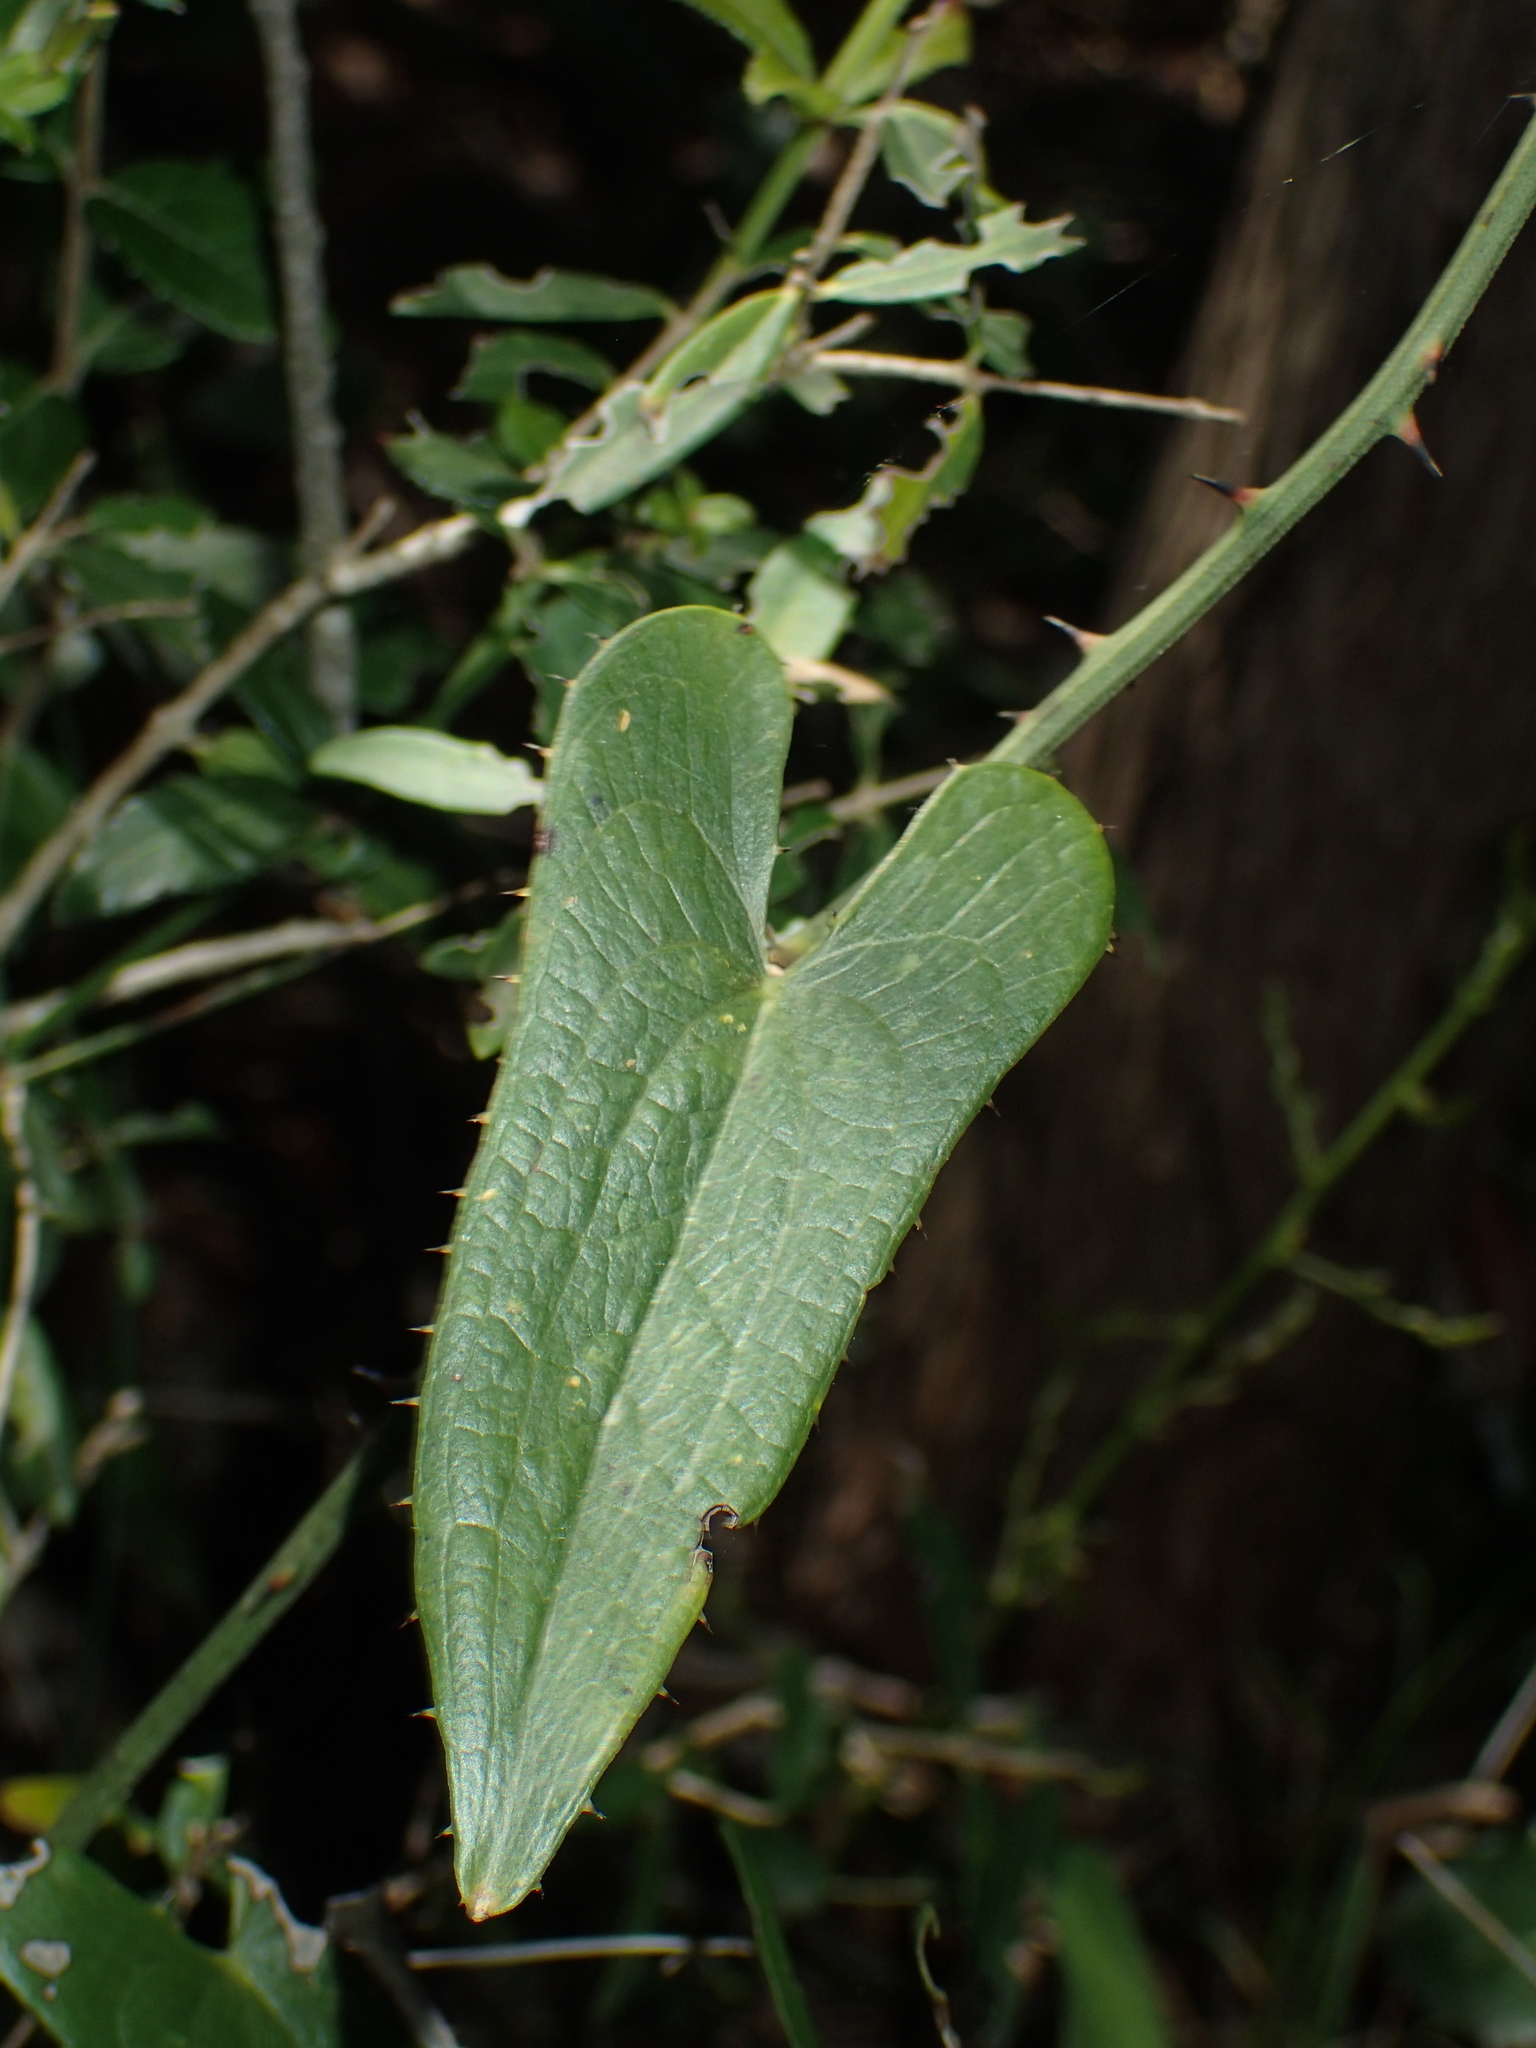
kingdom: Plantae
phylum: Tracheophyta
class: Liliopsida
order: Liliales
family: Smilacaceae
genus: Smilax
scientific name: Smilax aspera
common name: Common smilax
